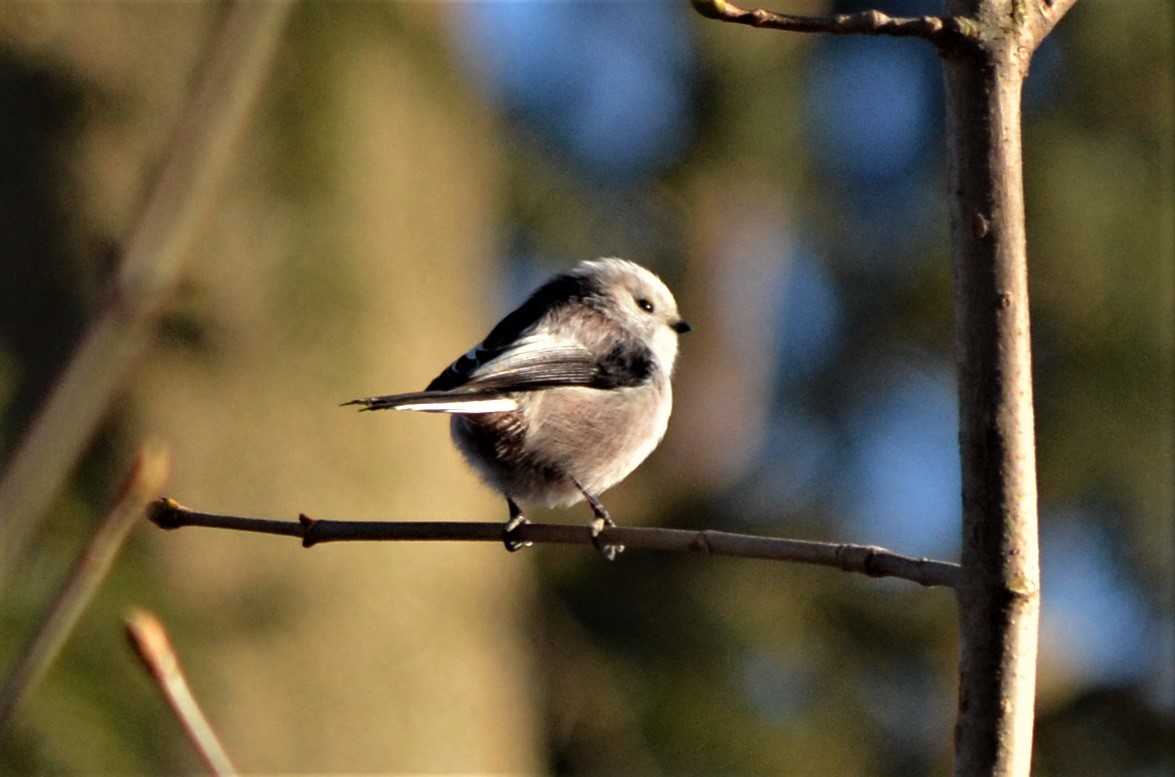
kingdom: Animalia
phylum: Chordata
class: Aves
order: Passeriformes
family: Aegithalidae
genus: Aegithalos
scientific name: Aegithalos caudatus
